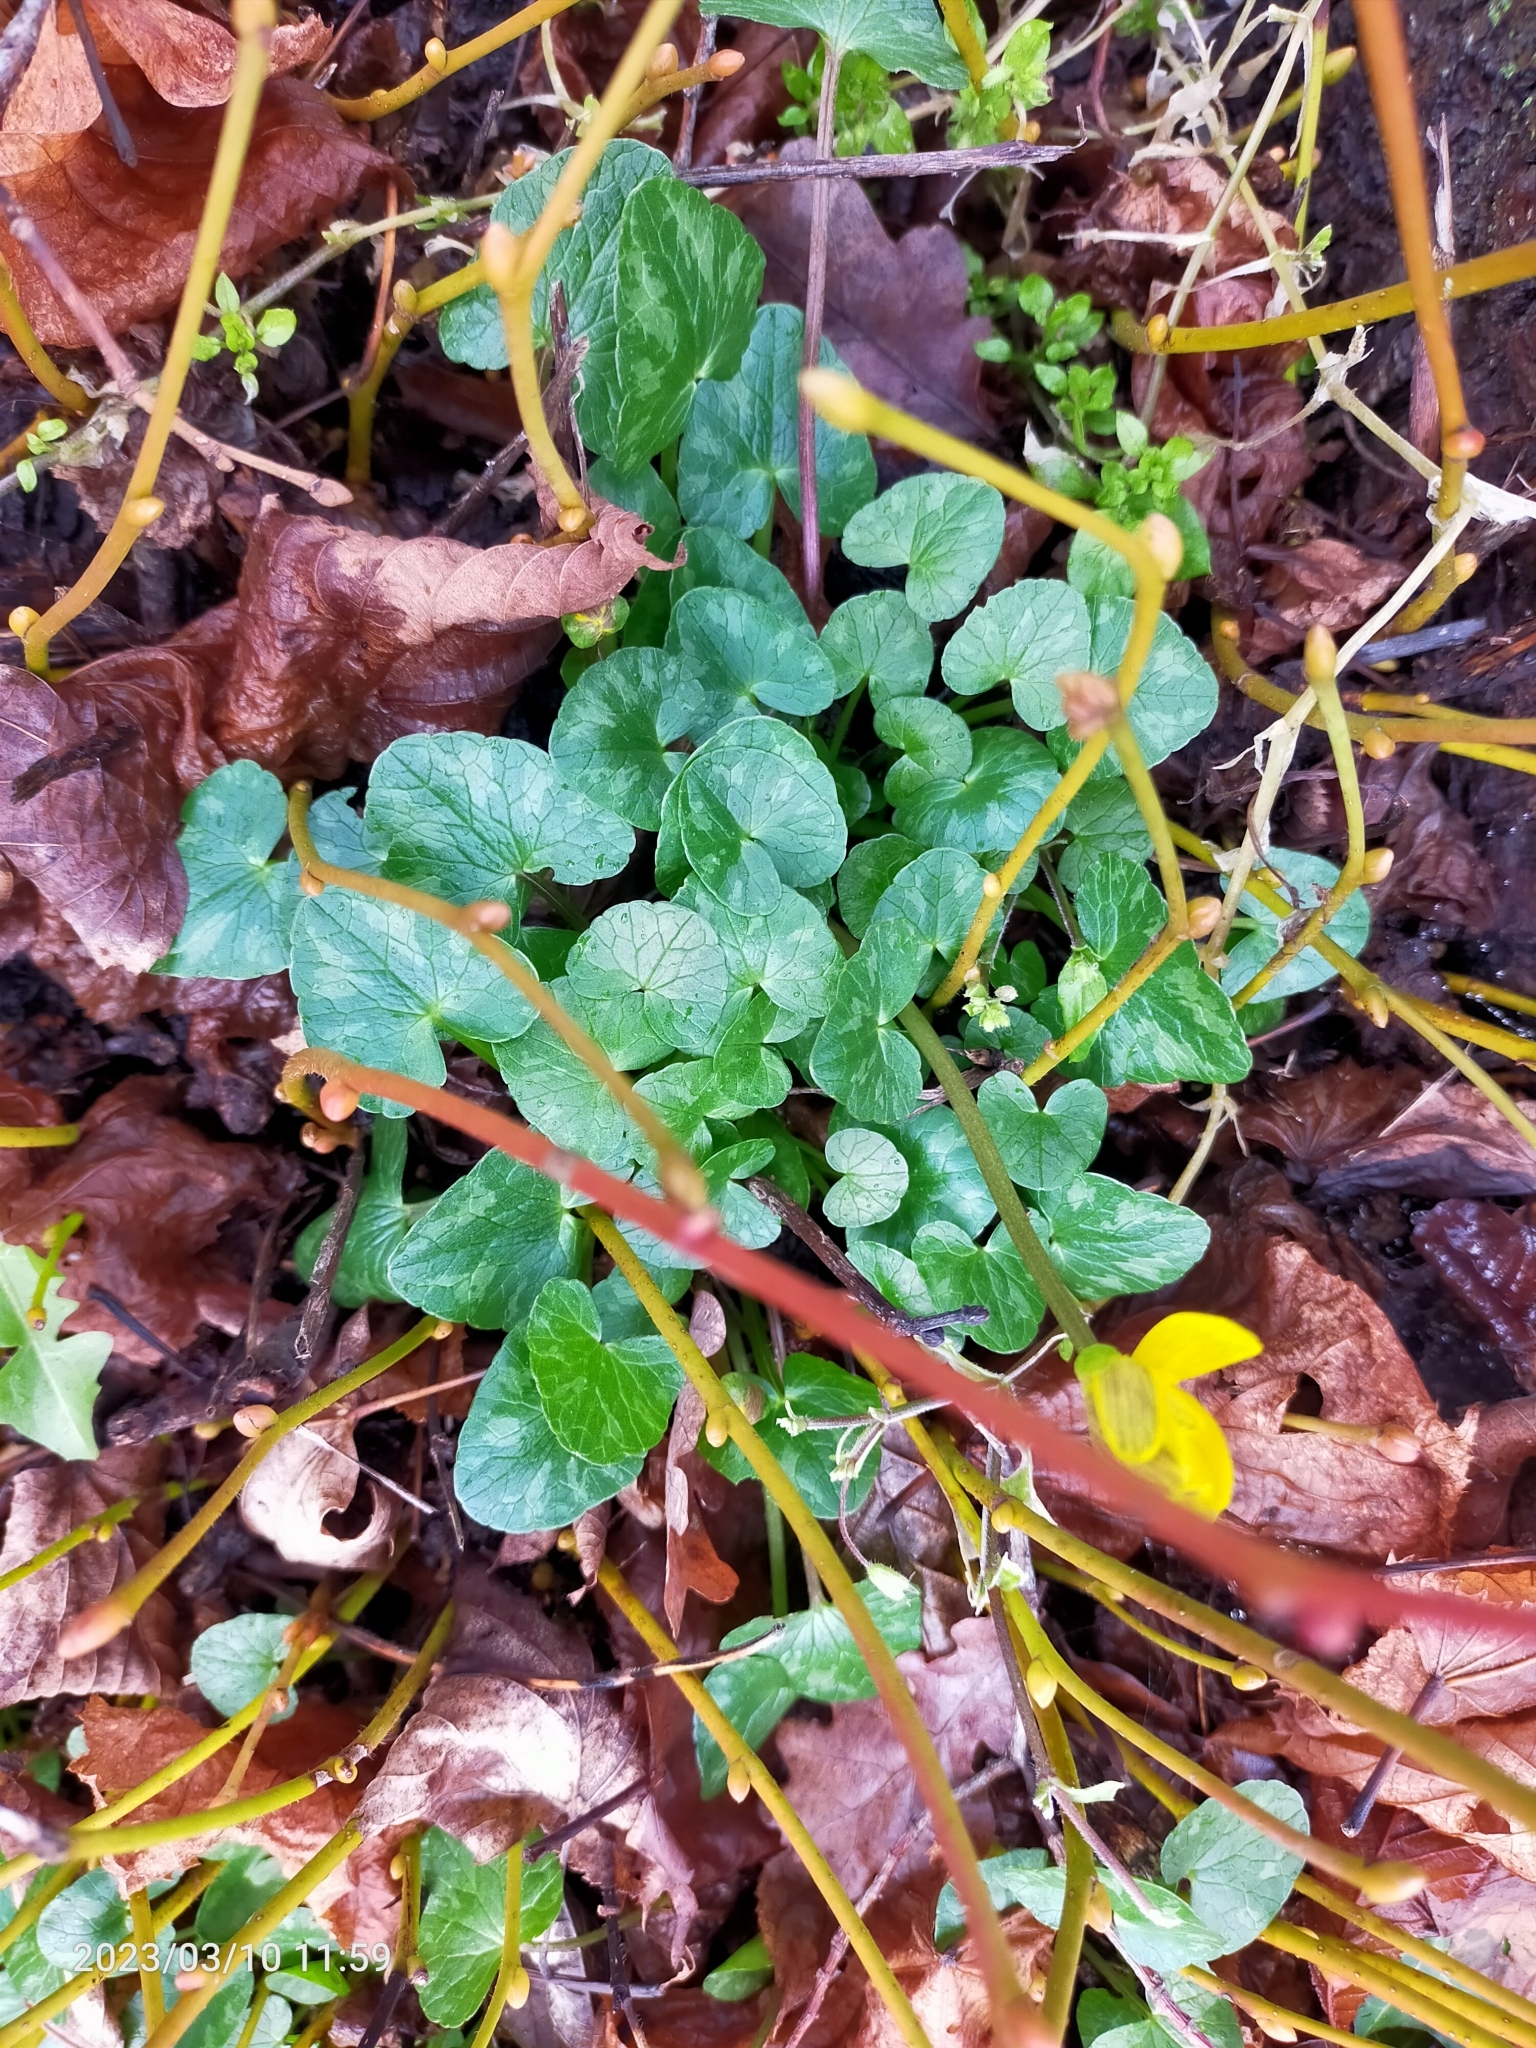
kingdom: Plantae
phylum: Tracheophyta
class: Magnoliopsida
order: Ranunculales
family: Ranunculaceae
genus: Ficaria
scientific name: Ficaria verna
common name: Lesser celandine
